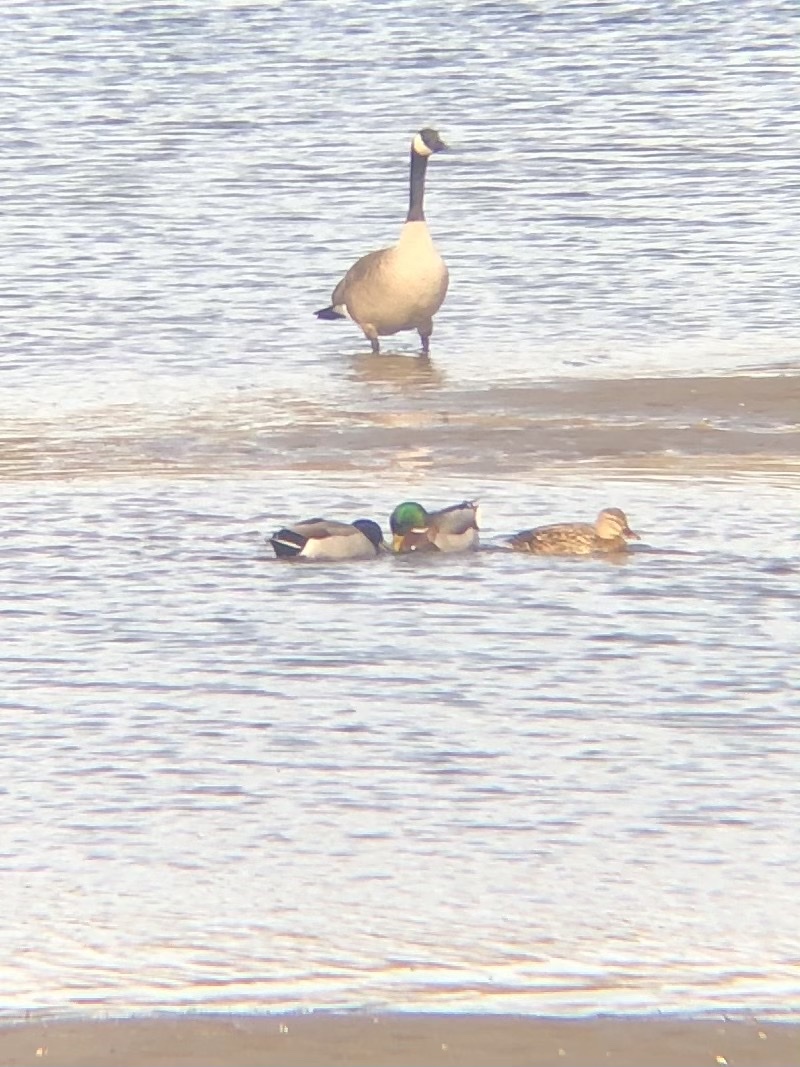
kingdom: Animalia
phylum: Chordata
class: Aves
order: Anseriformes
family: Anatidae
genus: Anas
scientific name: Anas platyrhynchos
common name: Mallard
